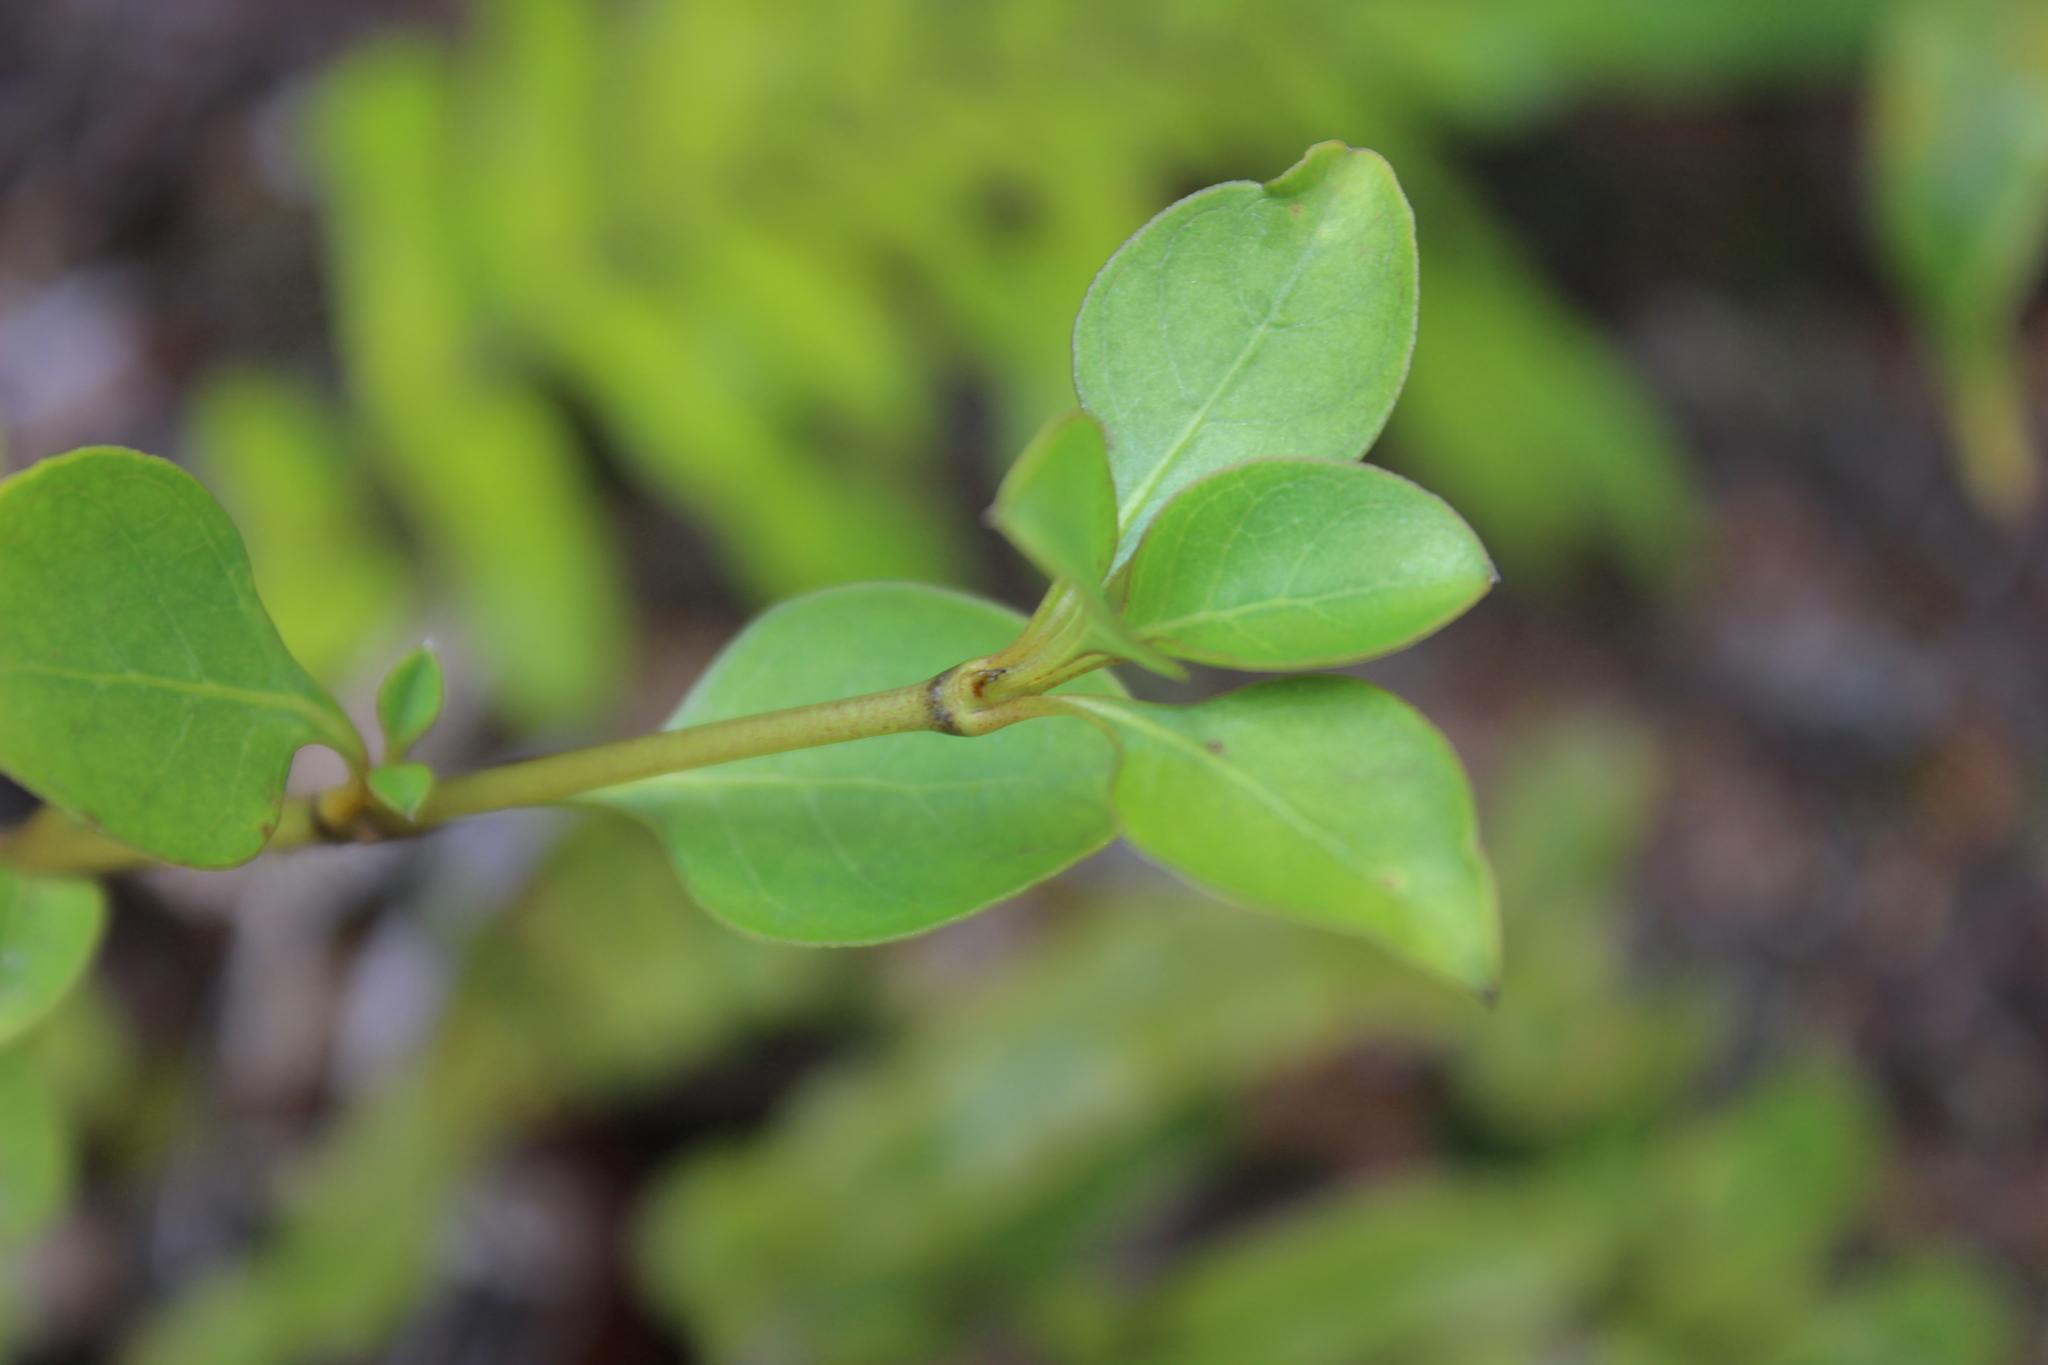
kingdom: Plantae
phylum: Tracheophyta
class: Magnoliopsida
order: Gentianales
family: Rubiaceae
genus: Coprosma
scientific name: Coprosma foetidissima
